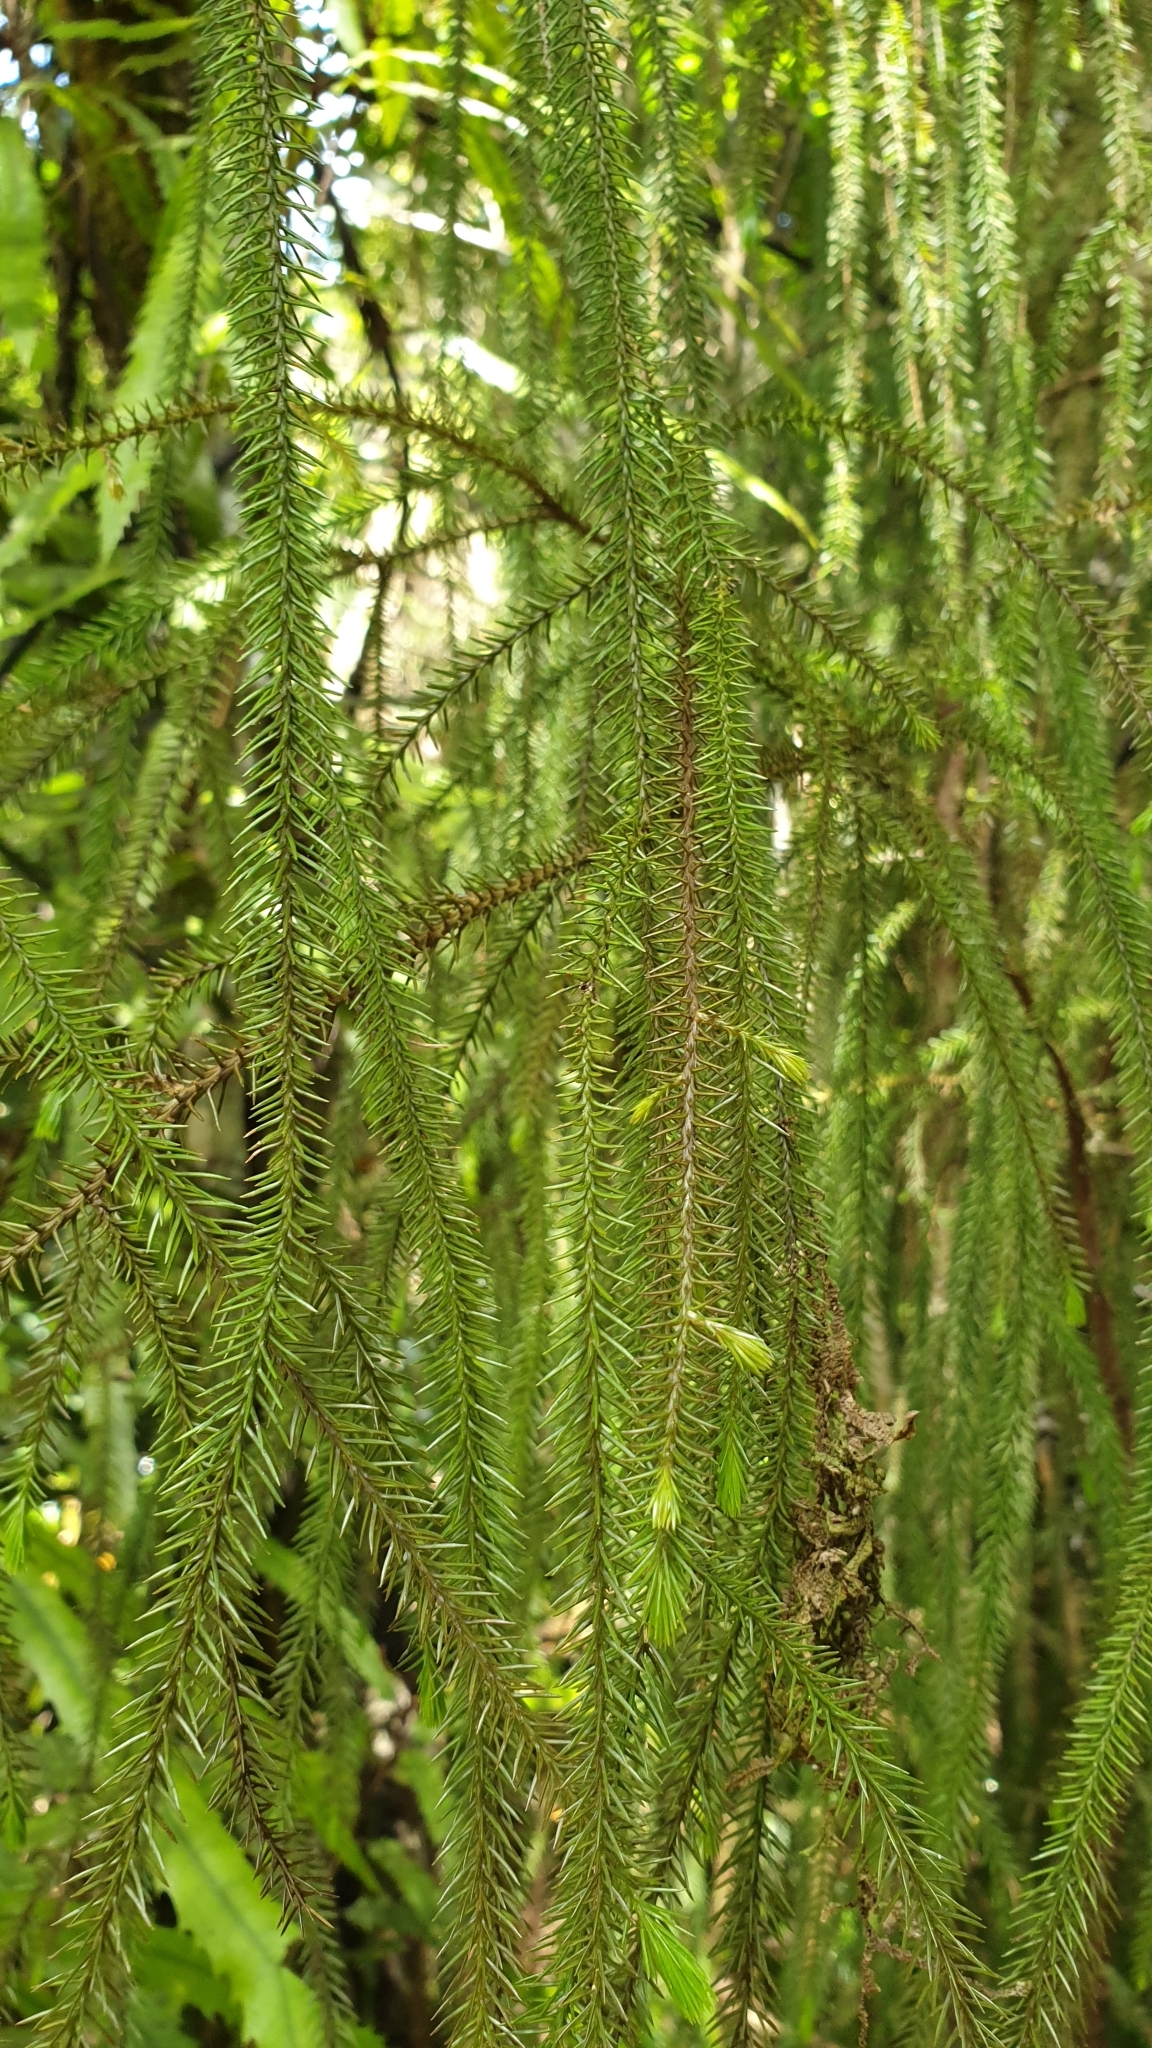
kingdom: Plantae
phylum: Tracheophyta
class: Pinopsida
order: Pinales
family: Podocarpaceae
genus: Dacrydium
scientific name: Dacrydium cupressinum
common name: Red pine
